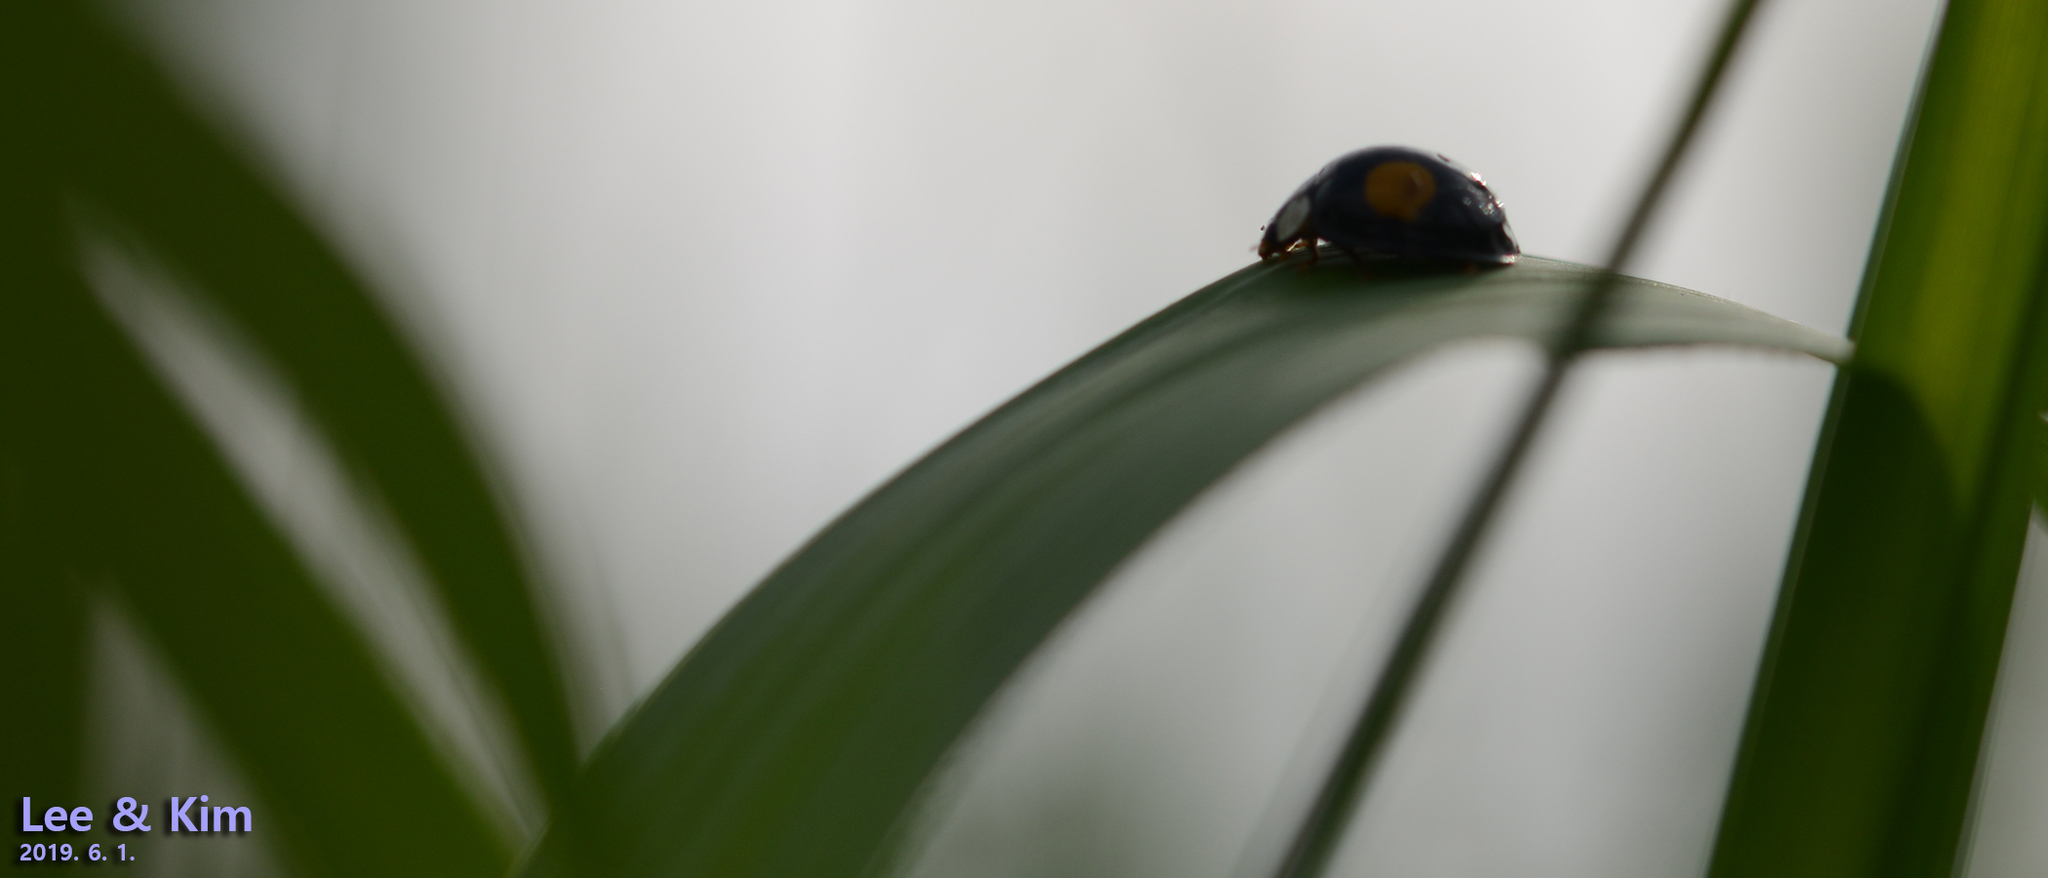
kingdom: Animalia
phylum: Arthropoda
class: Insecta
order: Coleoptera
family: Coccinellidae
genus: Harmonia
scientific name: Harmonia axyridis
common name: Harlequin ladybird
